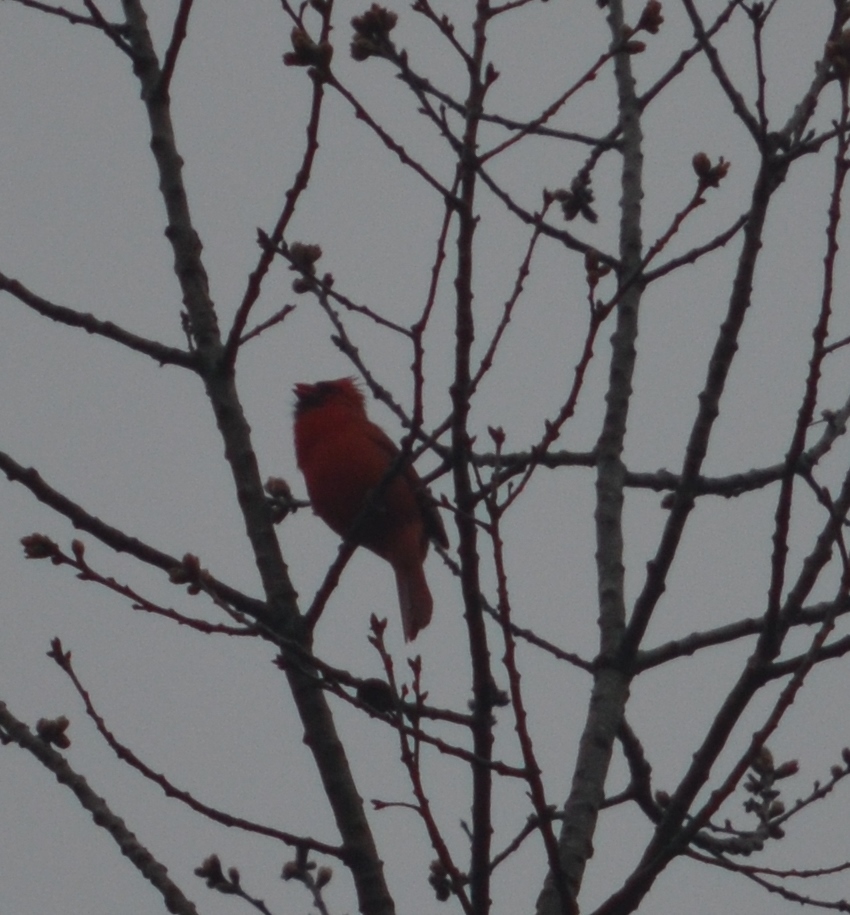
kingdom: Animalia
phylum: Chordata
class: Aves
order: Passeriformes
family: Cardinalidae
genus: Cardinalis
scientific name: Cardinalis cardinalis
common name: Northern cardinal
